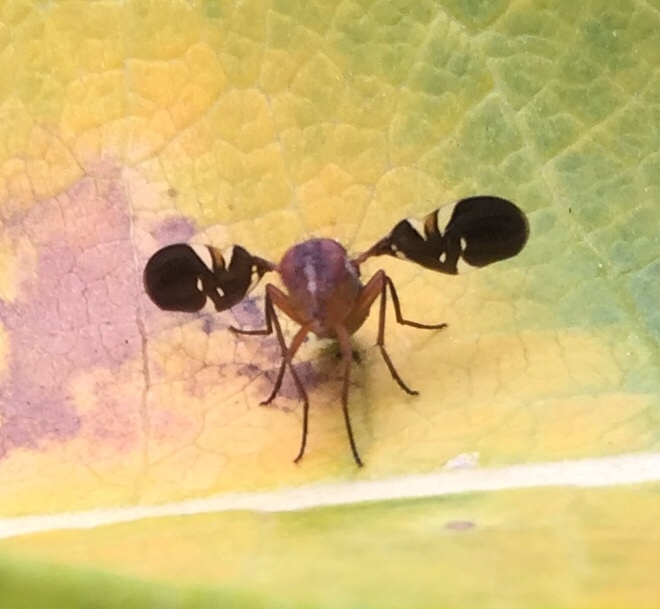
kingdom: Animalia
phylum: Arthropoda
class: Insecta
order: Diptera
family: Ulidiidae
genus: Delphinia
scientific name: Delphinia picta
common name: Common picture-winged fly
